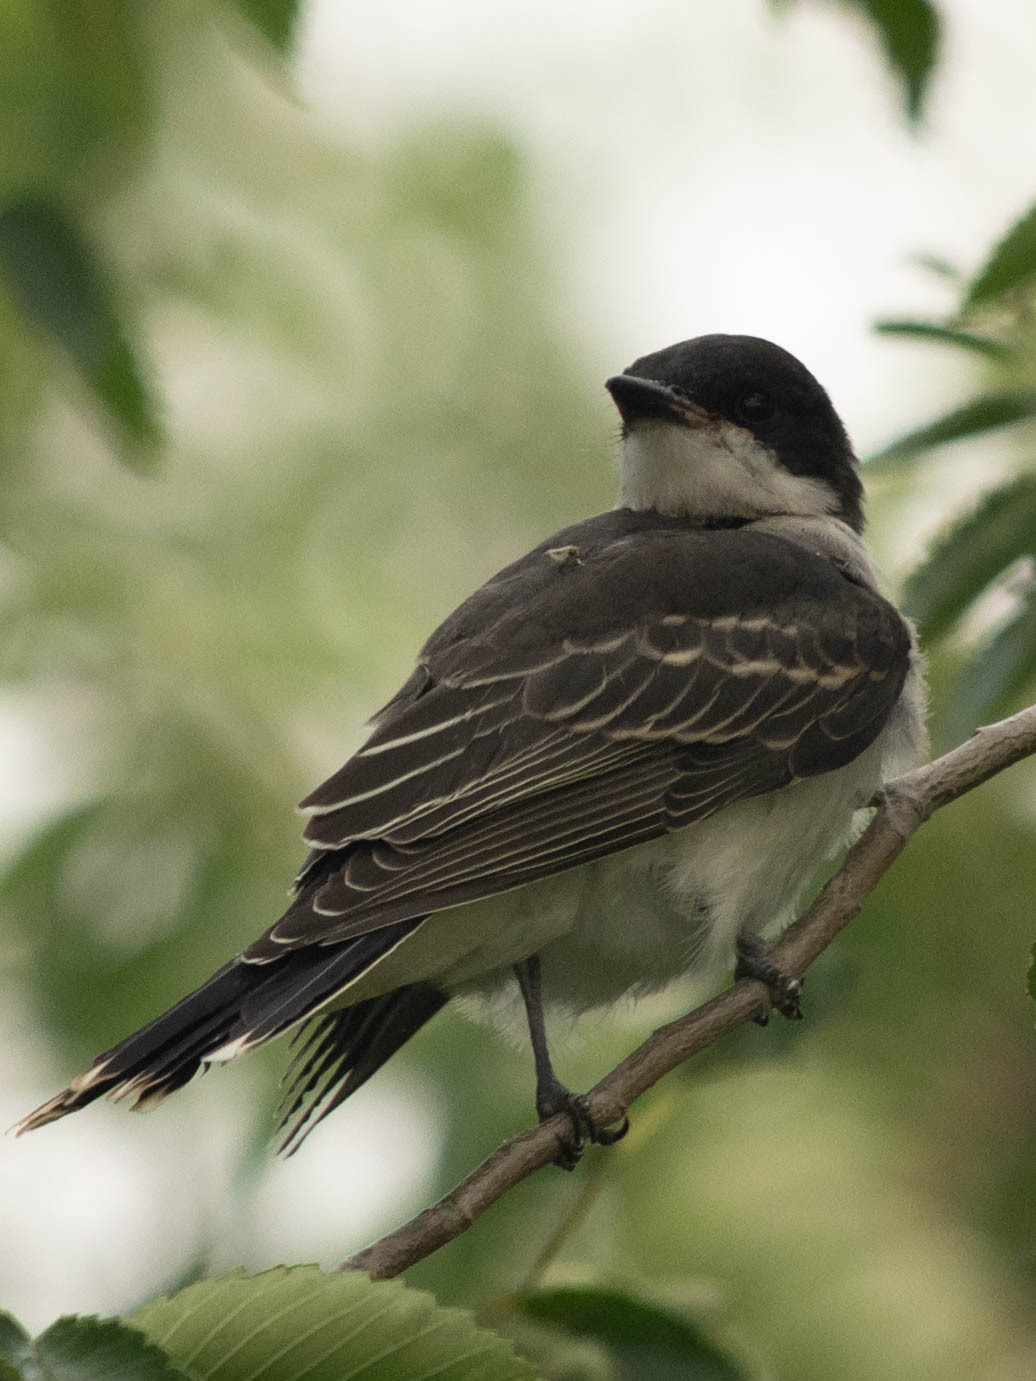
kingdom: Animalia
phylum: Chordata
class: Aves
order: Passeriformes
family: Tyrannidae
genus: Tyrannus
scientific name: Tyrannus tyrannus
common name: Eastern kingbird
